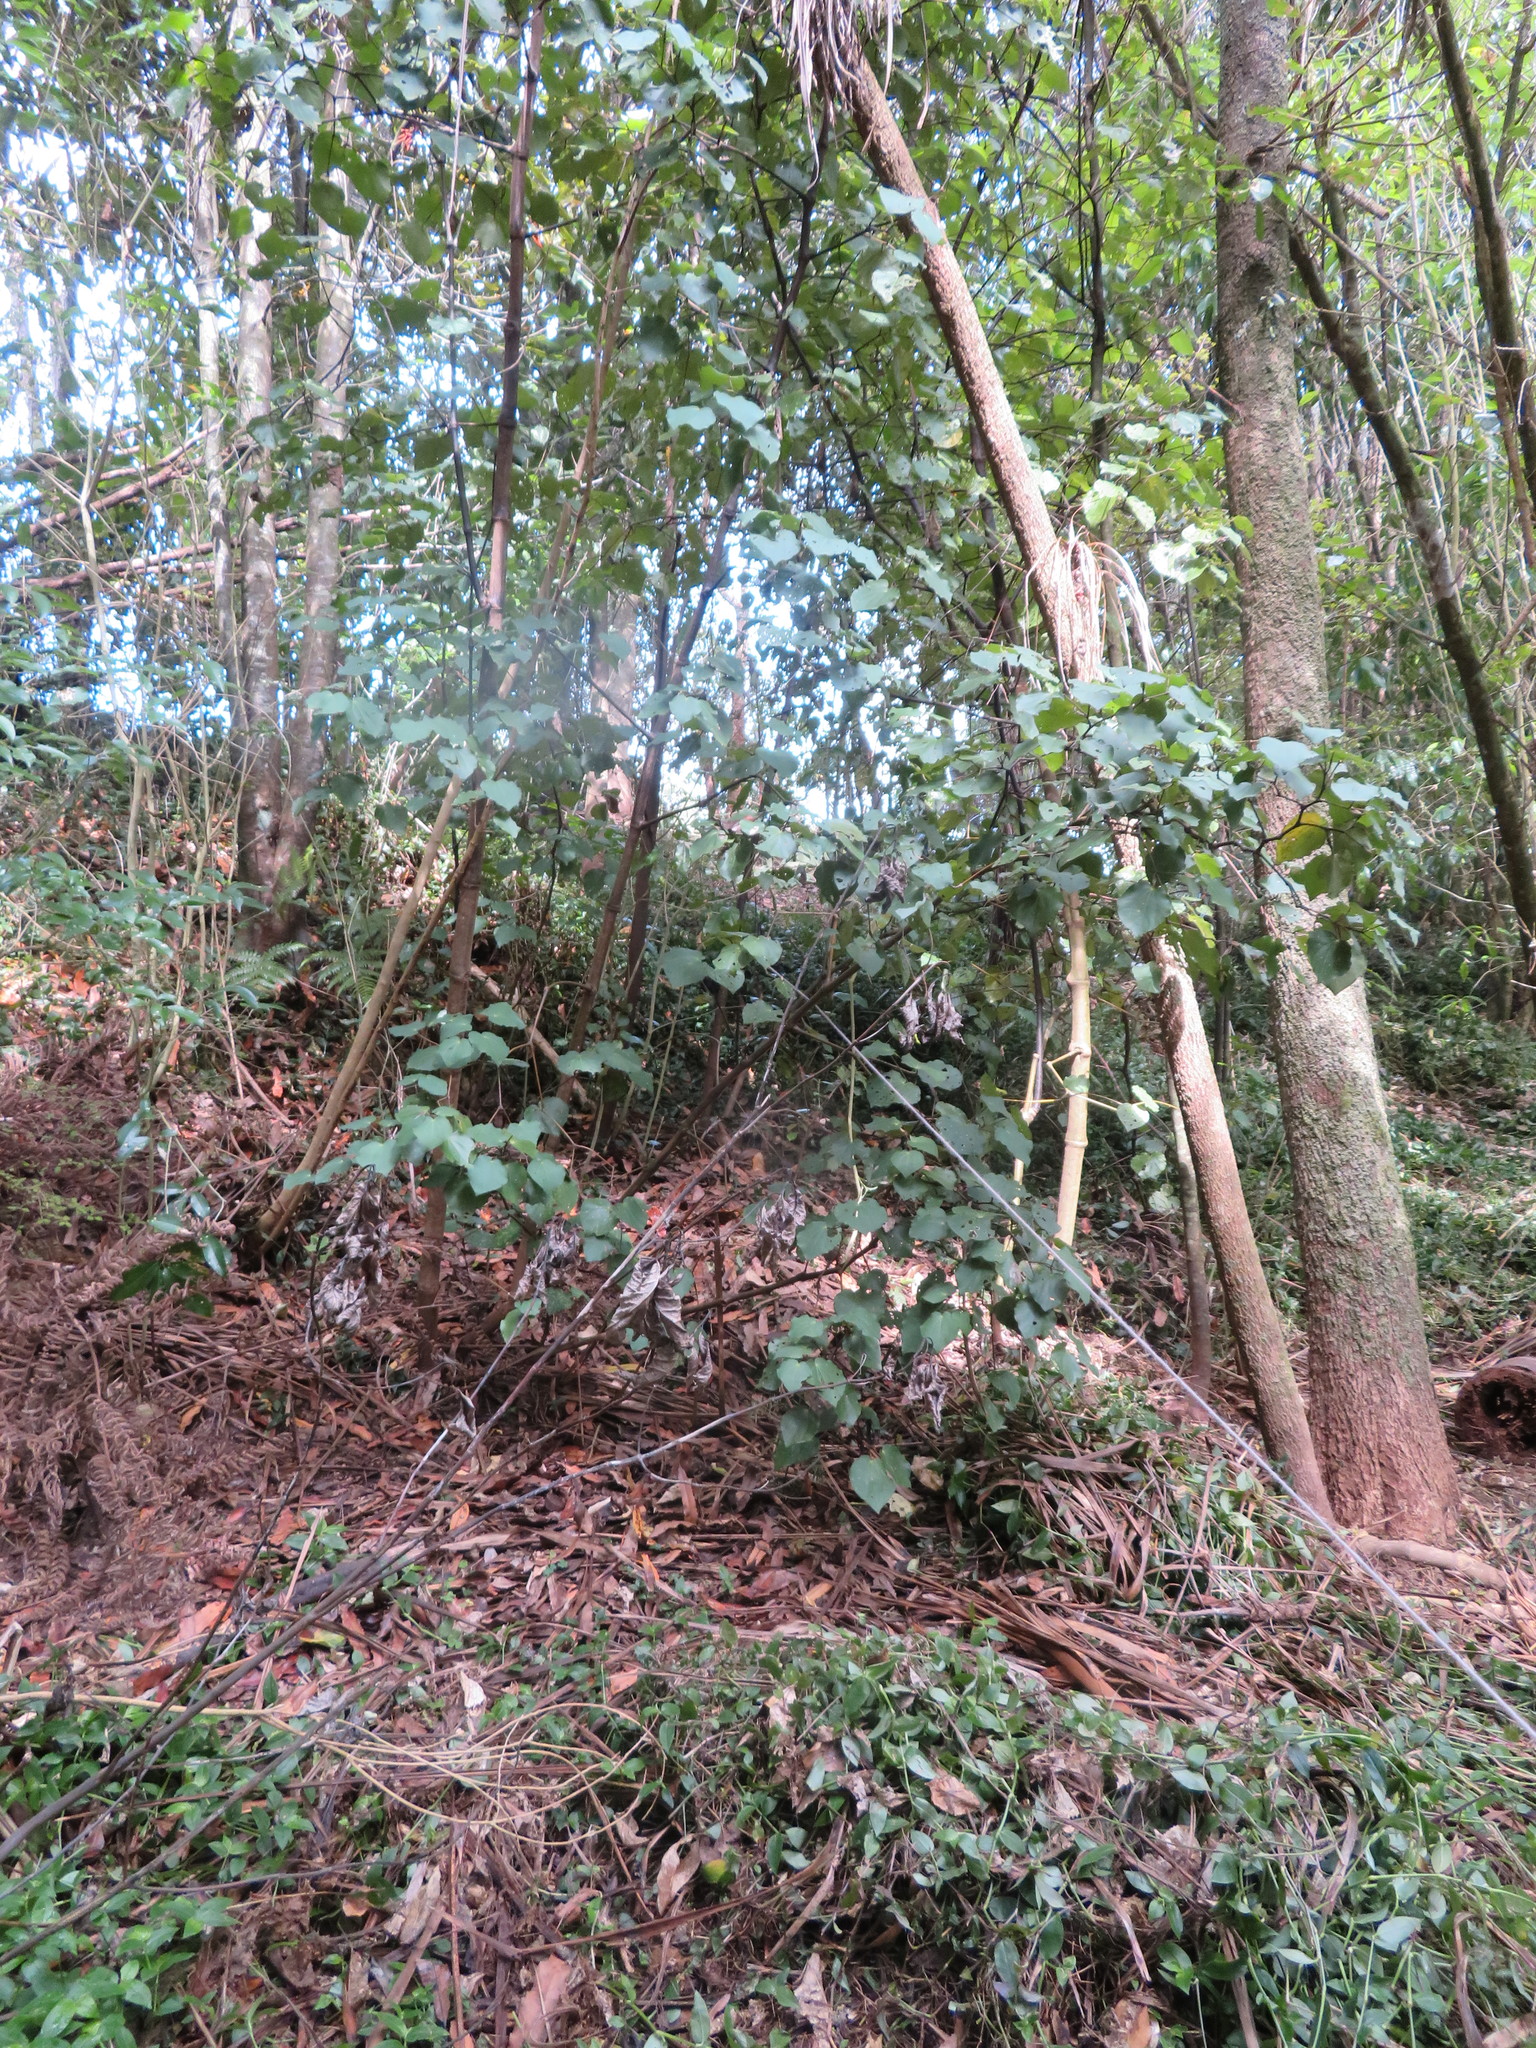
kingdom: Plantae
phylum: Tracheophyta
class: Liliopsida
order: Asparagales
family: Asparagaceae
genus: Cordyline
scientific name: Cordyline australis
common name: Cabbage-palm
